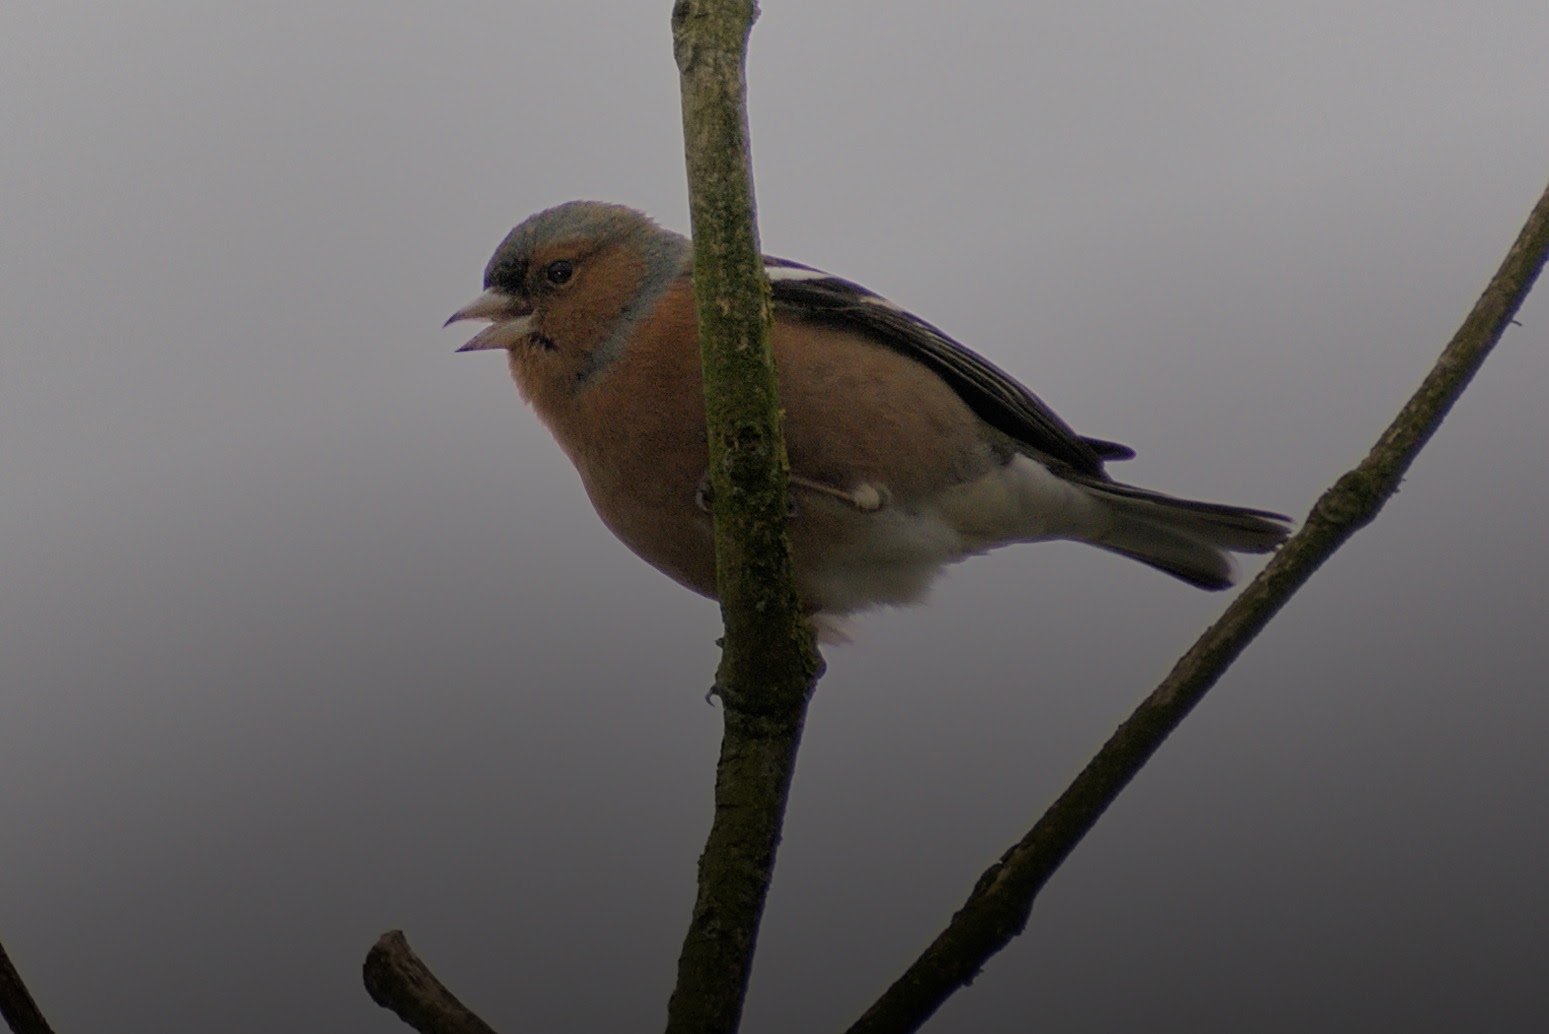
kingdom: Animalia
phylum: Chordata
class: Aves
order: Passeriformes
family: Fringillidae
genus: Fringilla
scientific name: Fringilla coelebs
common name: Common chaffinch
